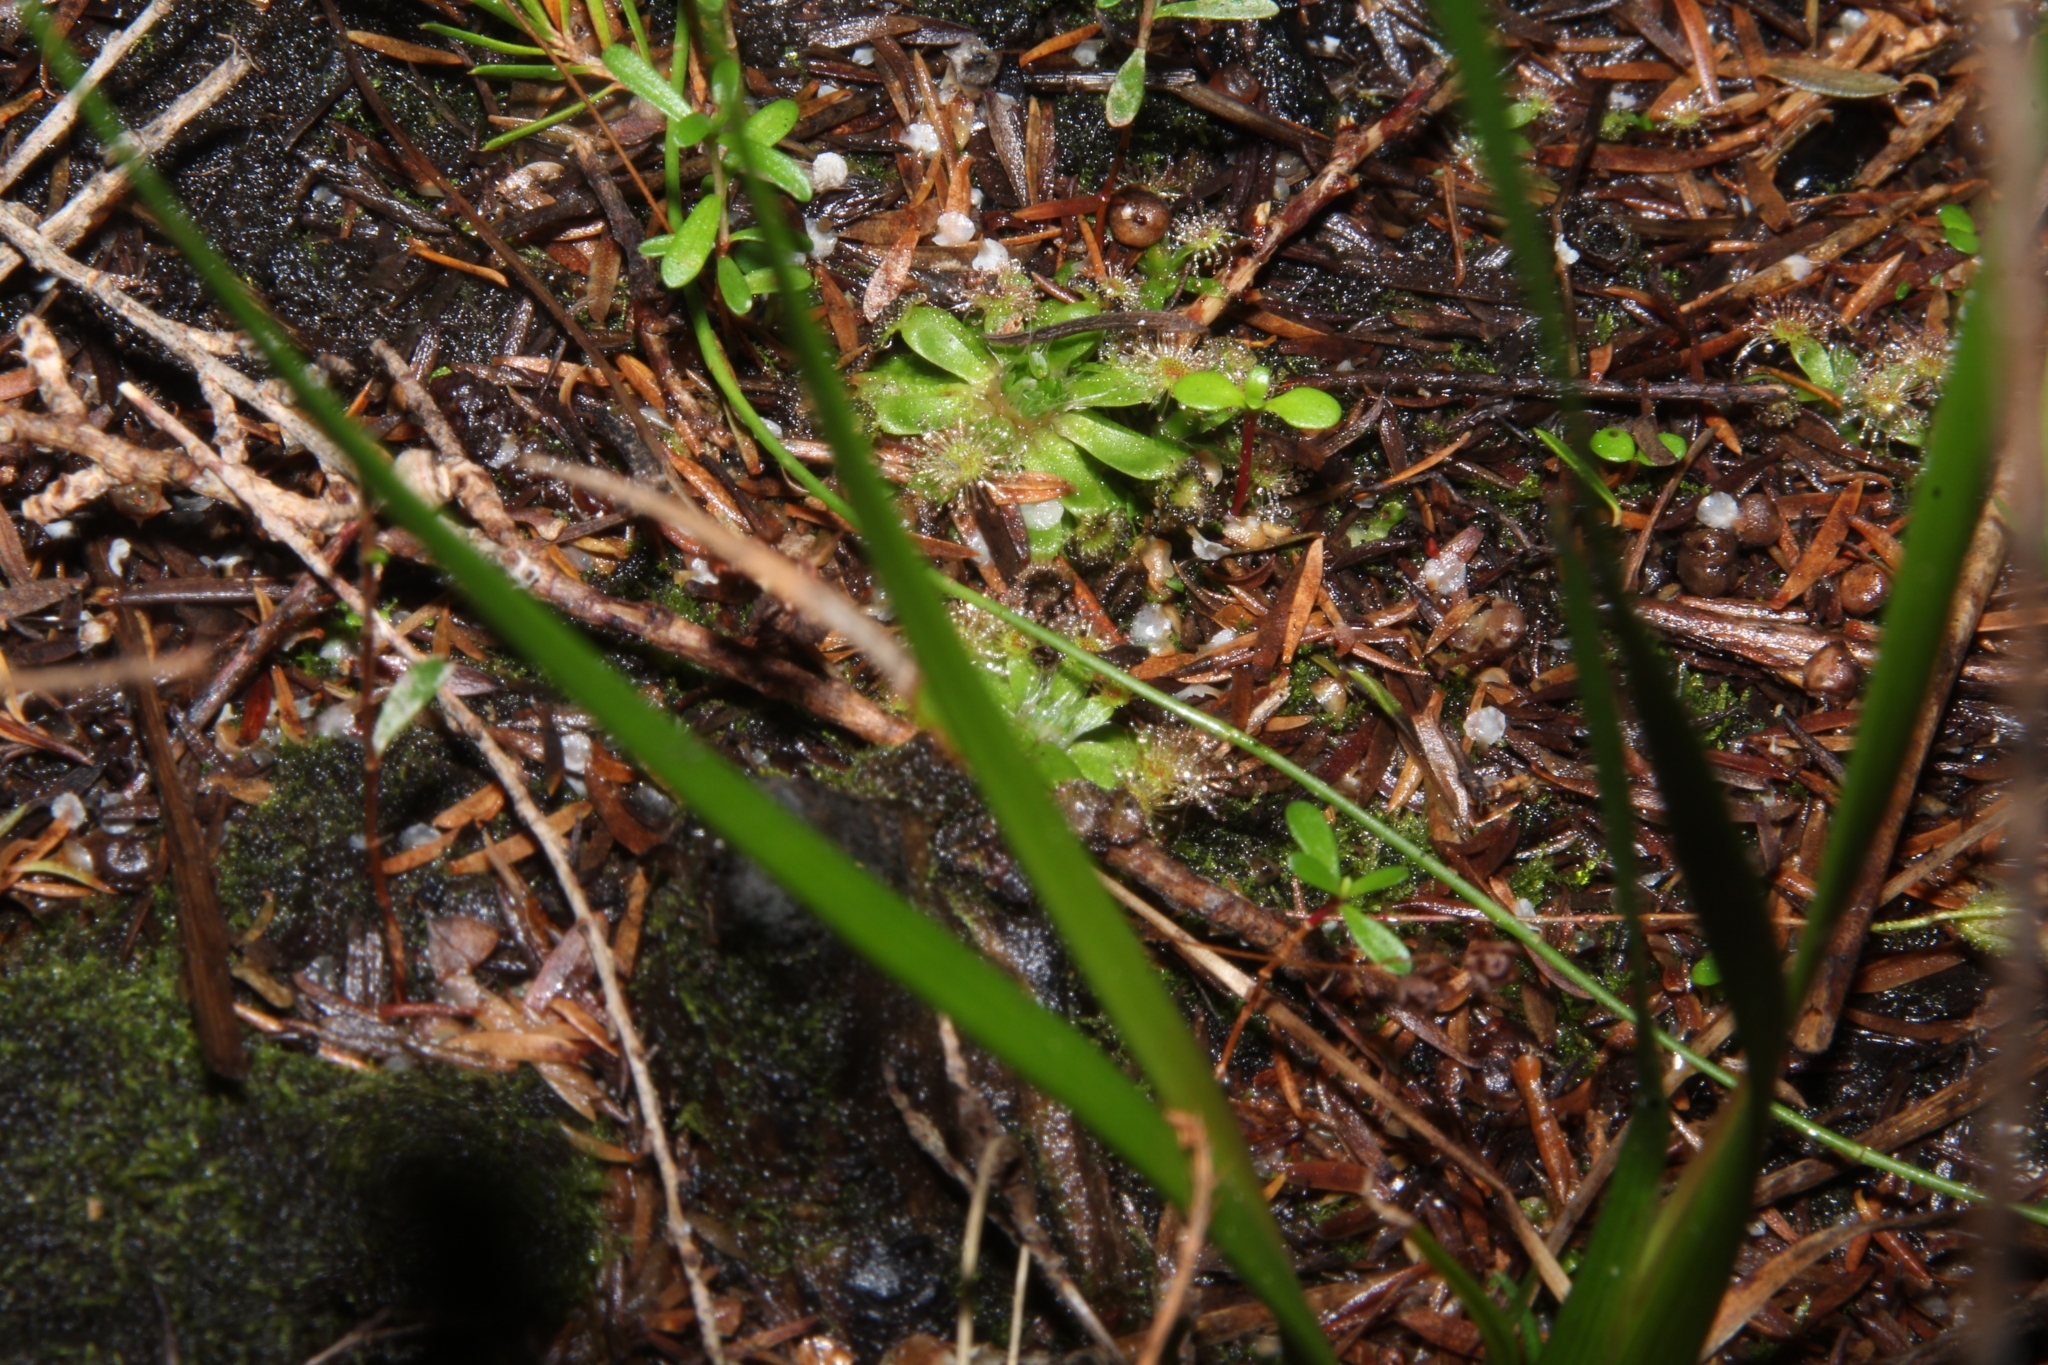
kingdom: Plantae
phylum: Tracheophyta
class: Magnoliopsida
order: Caryophyllales
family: Droseraceae
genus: Drosera
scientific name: Drosera pulchella
